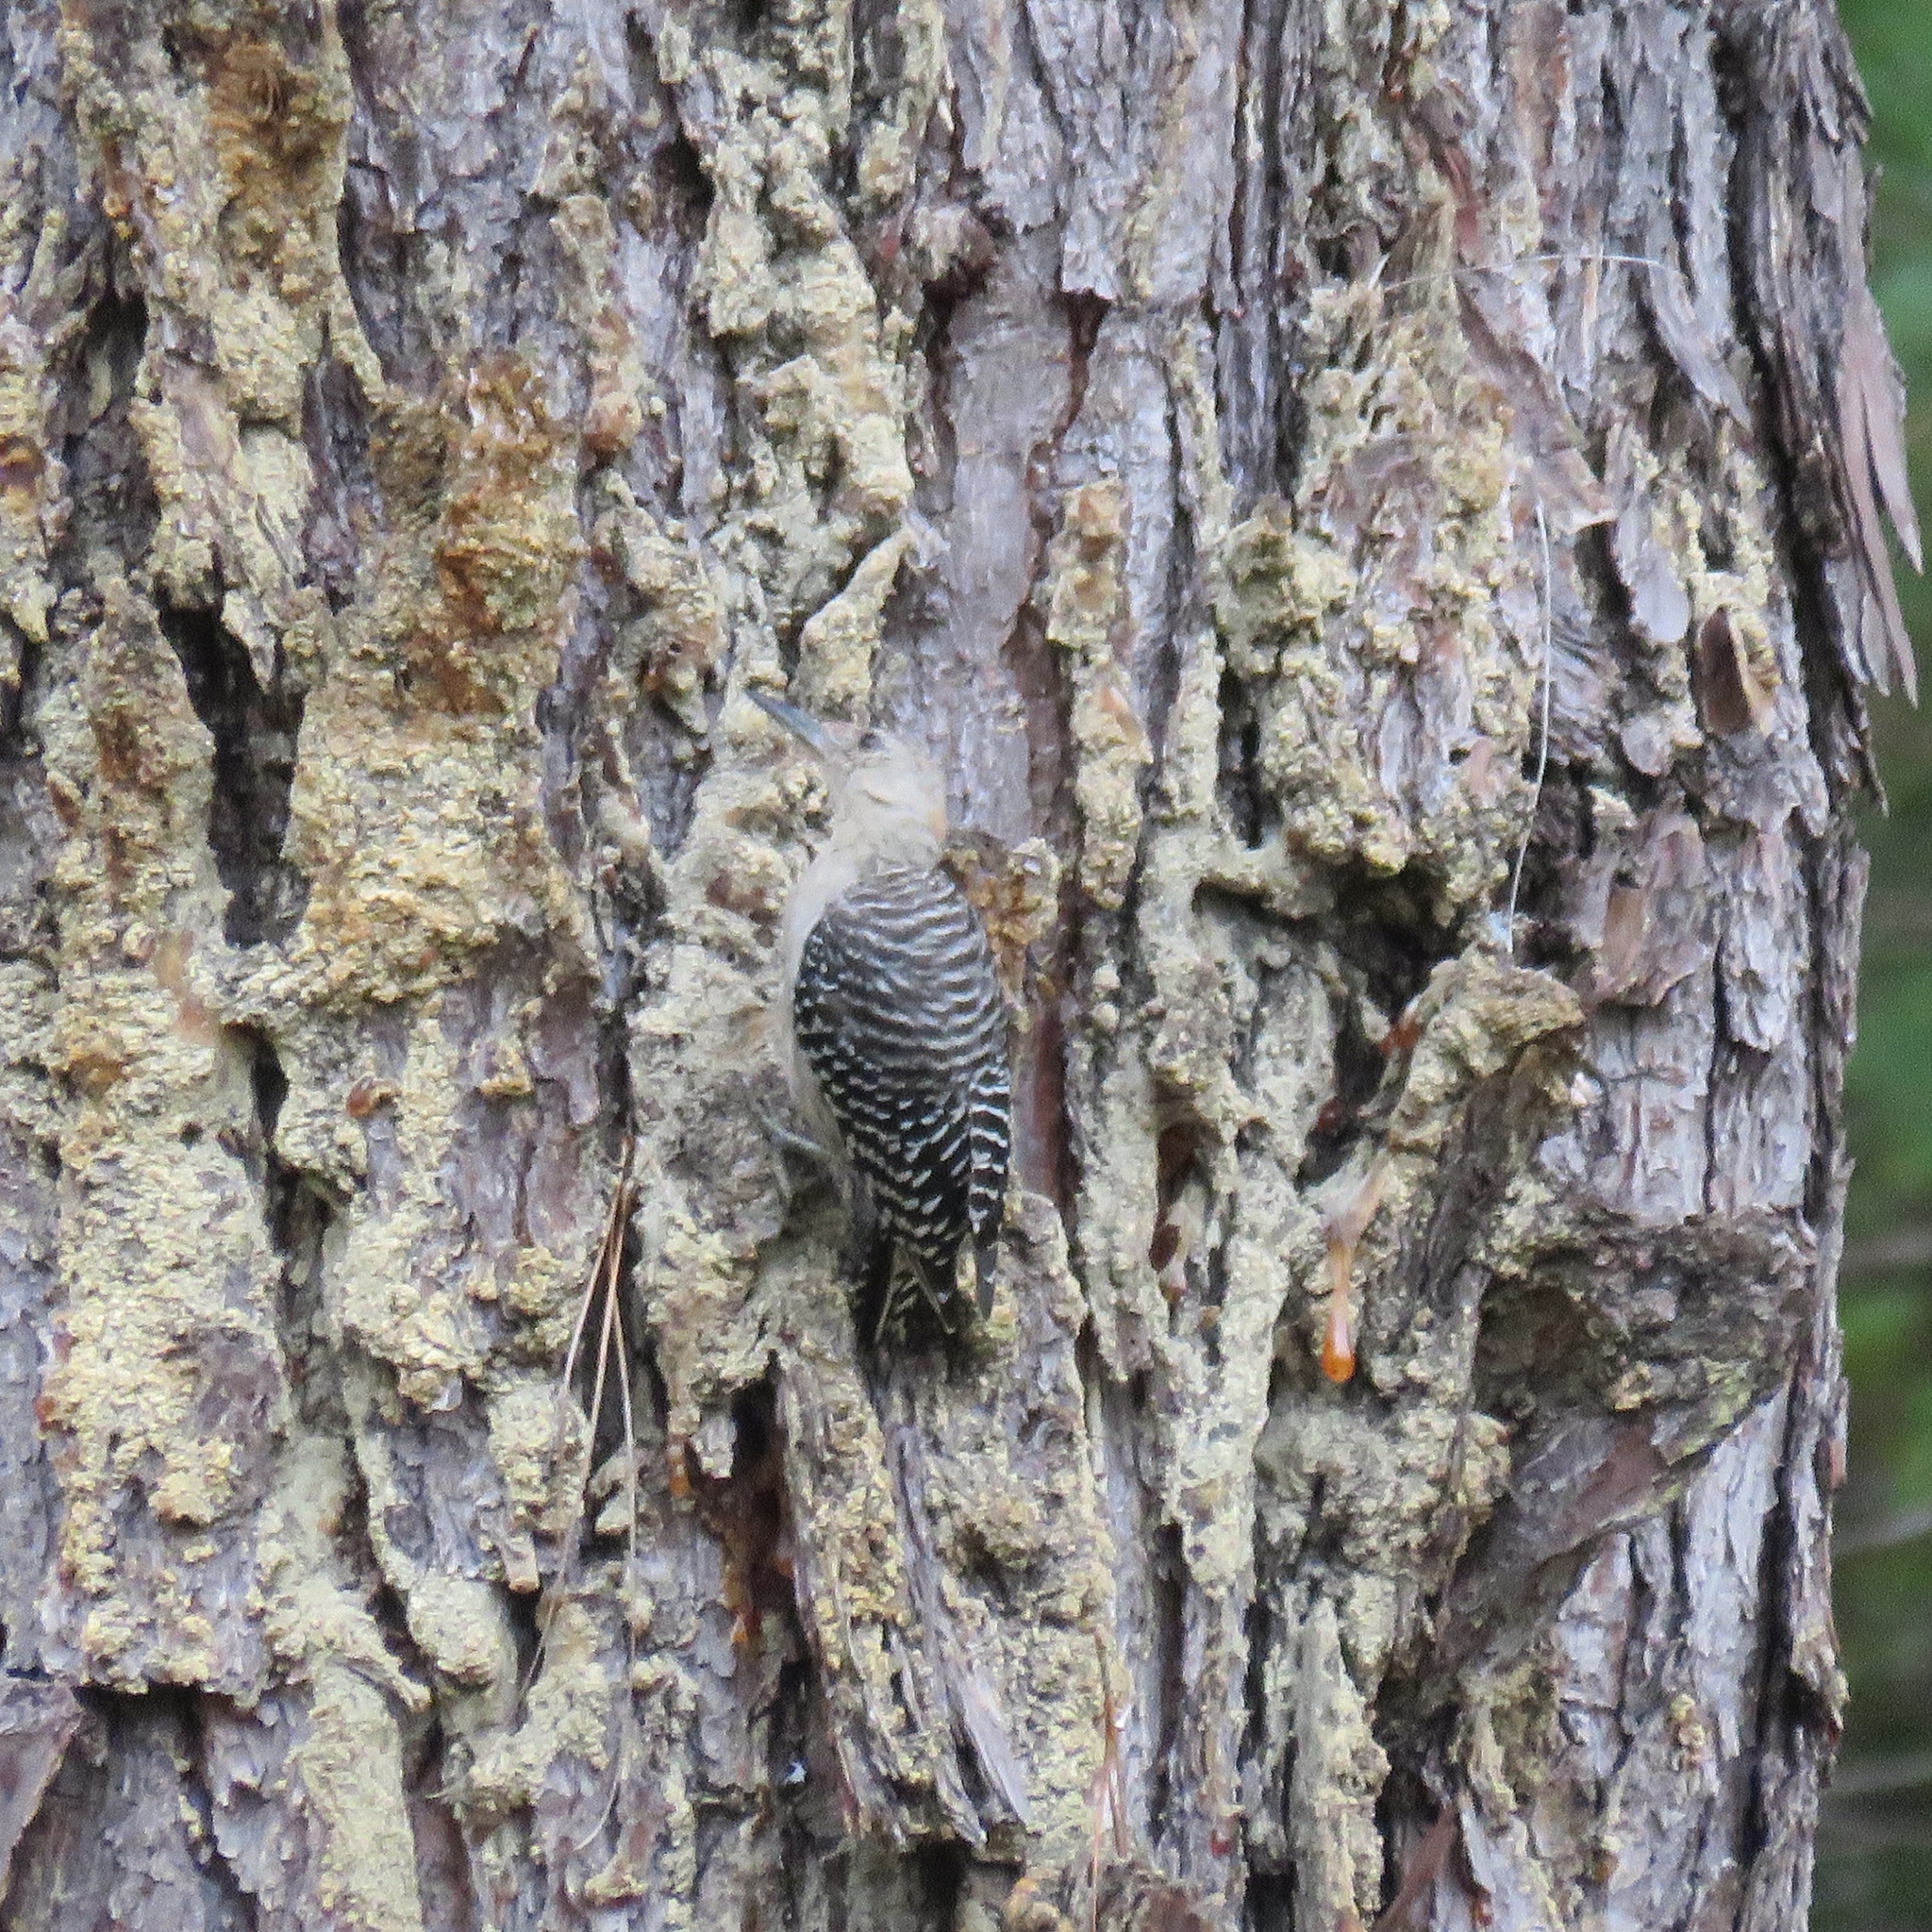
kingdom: Animalia
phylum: Chordata
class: Aves
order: Piciformes
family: Picidae
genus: Melanerpes
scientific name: Melanerpes carolinus
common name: Red-bellied woodpecker
